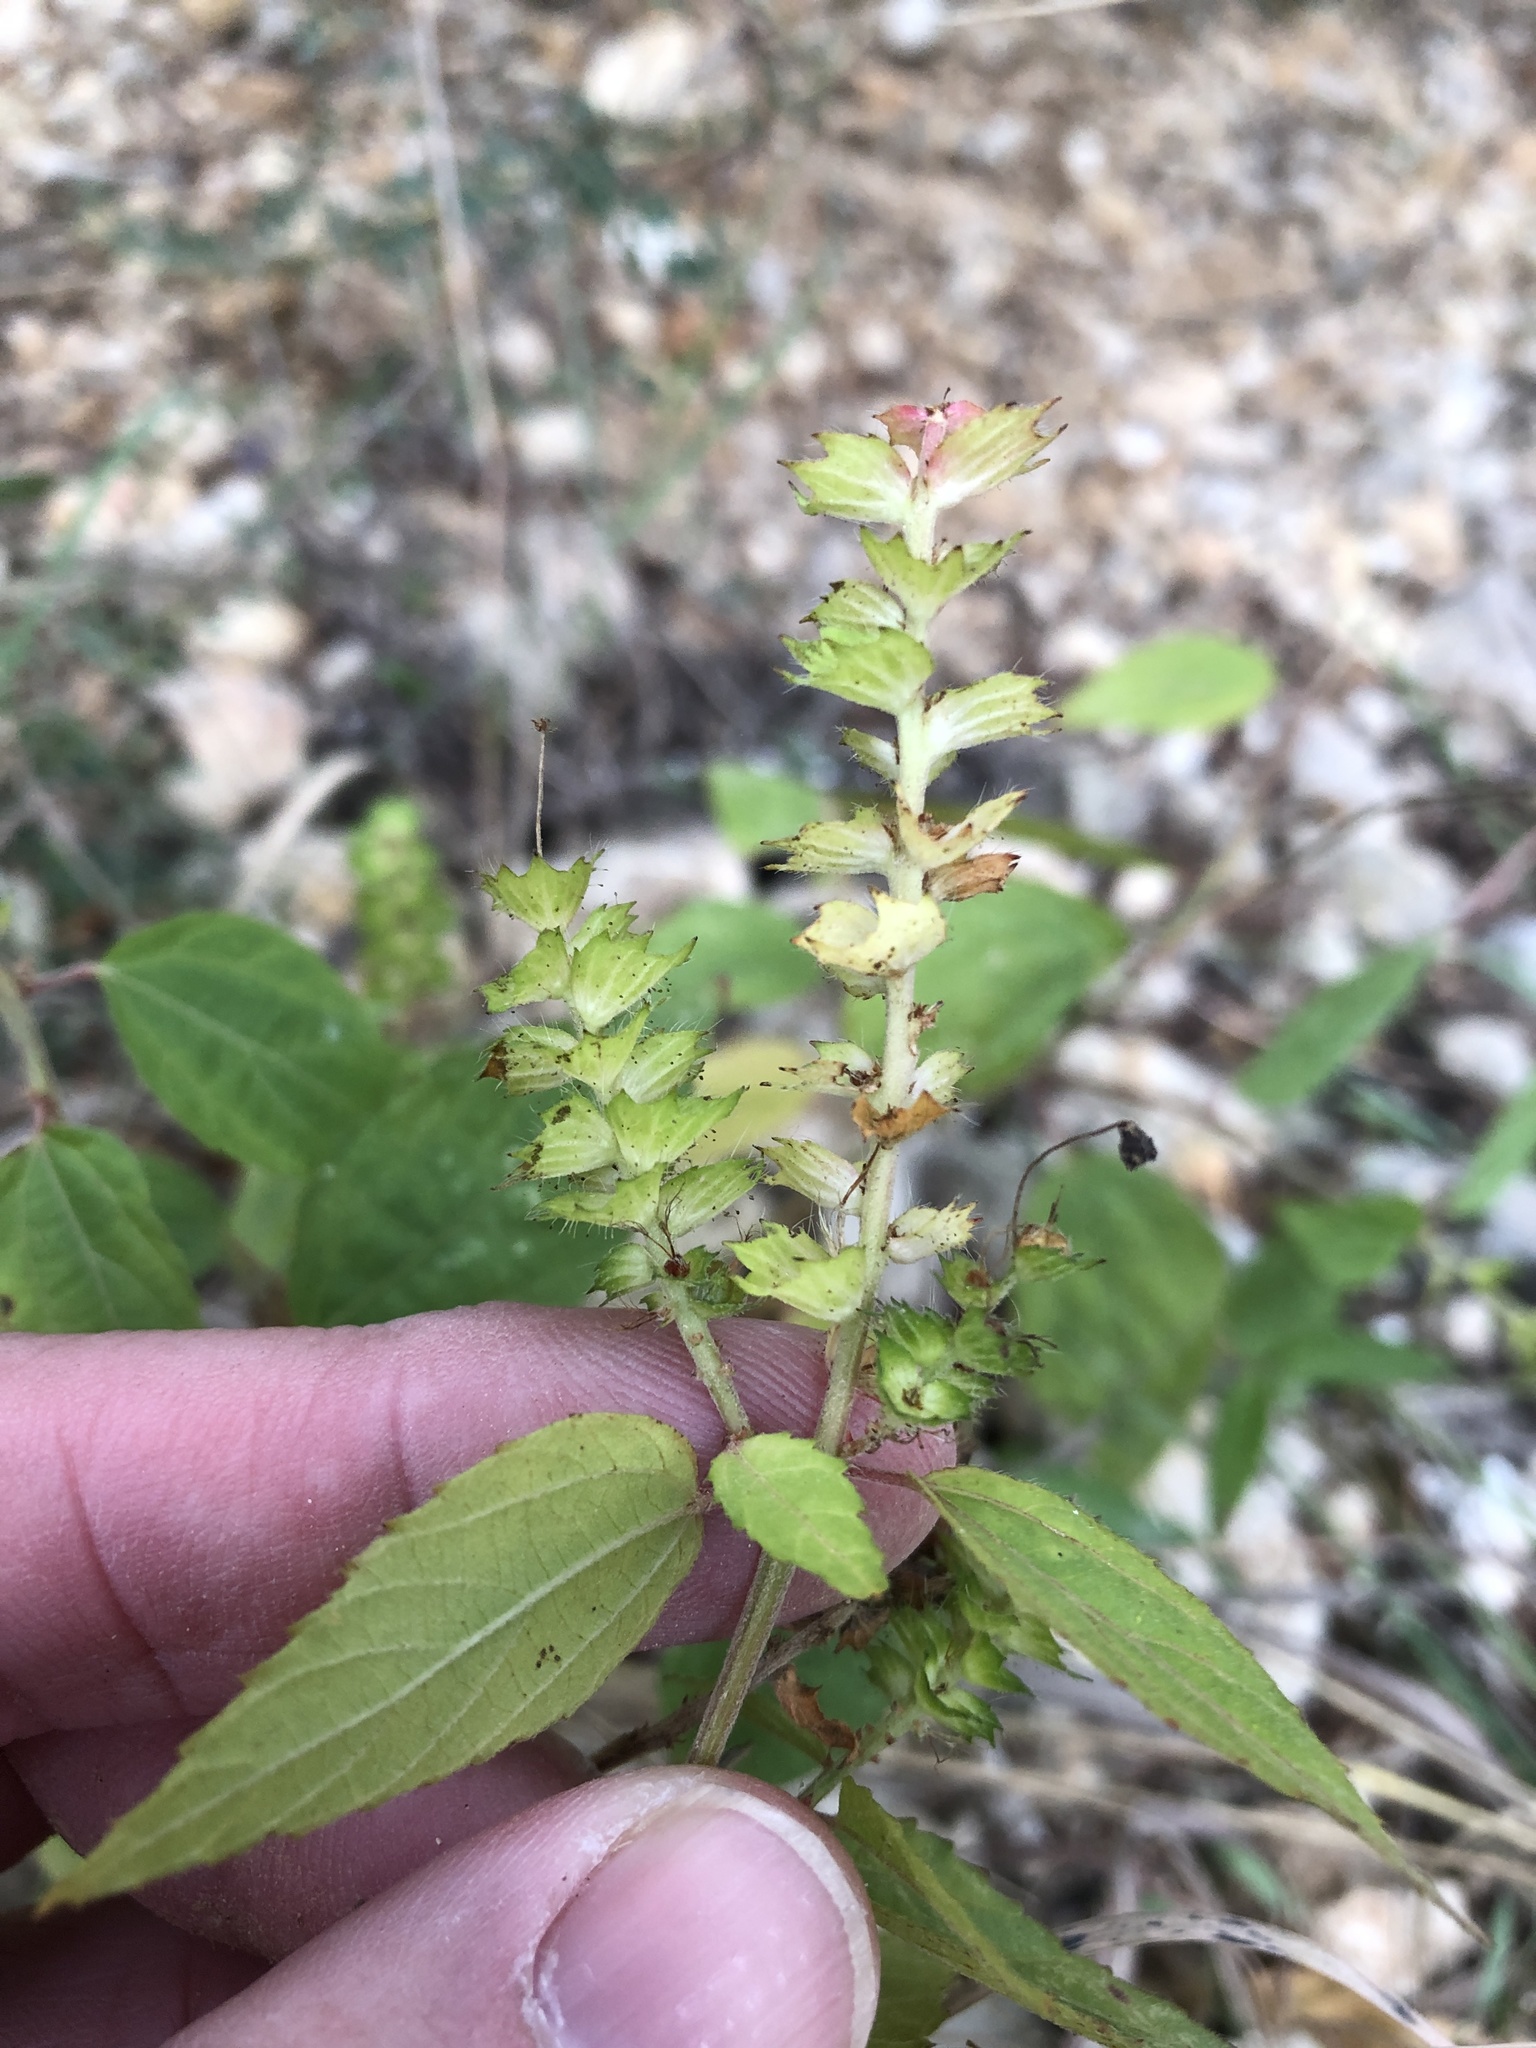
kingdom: Plantae
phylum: Tracheophyta
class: Magnoliopsida
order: Malpighiales
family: Euphorbiaceae
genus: Acalypha
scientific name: Acalypha phleoides
